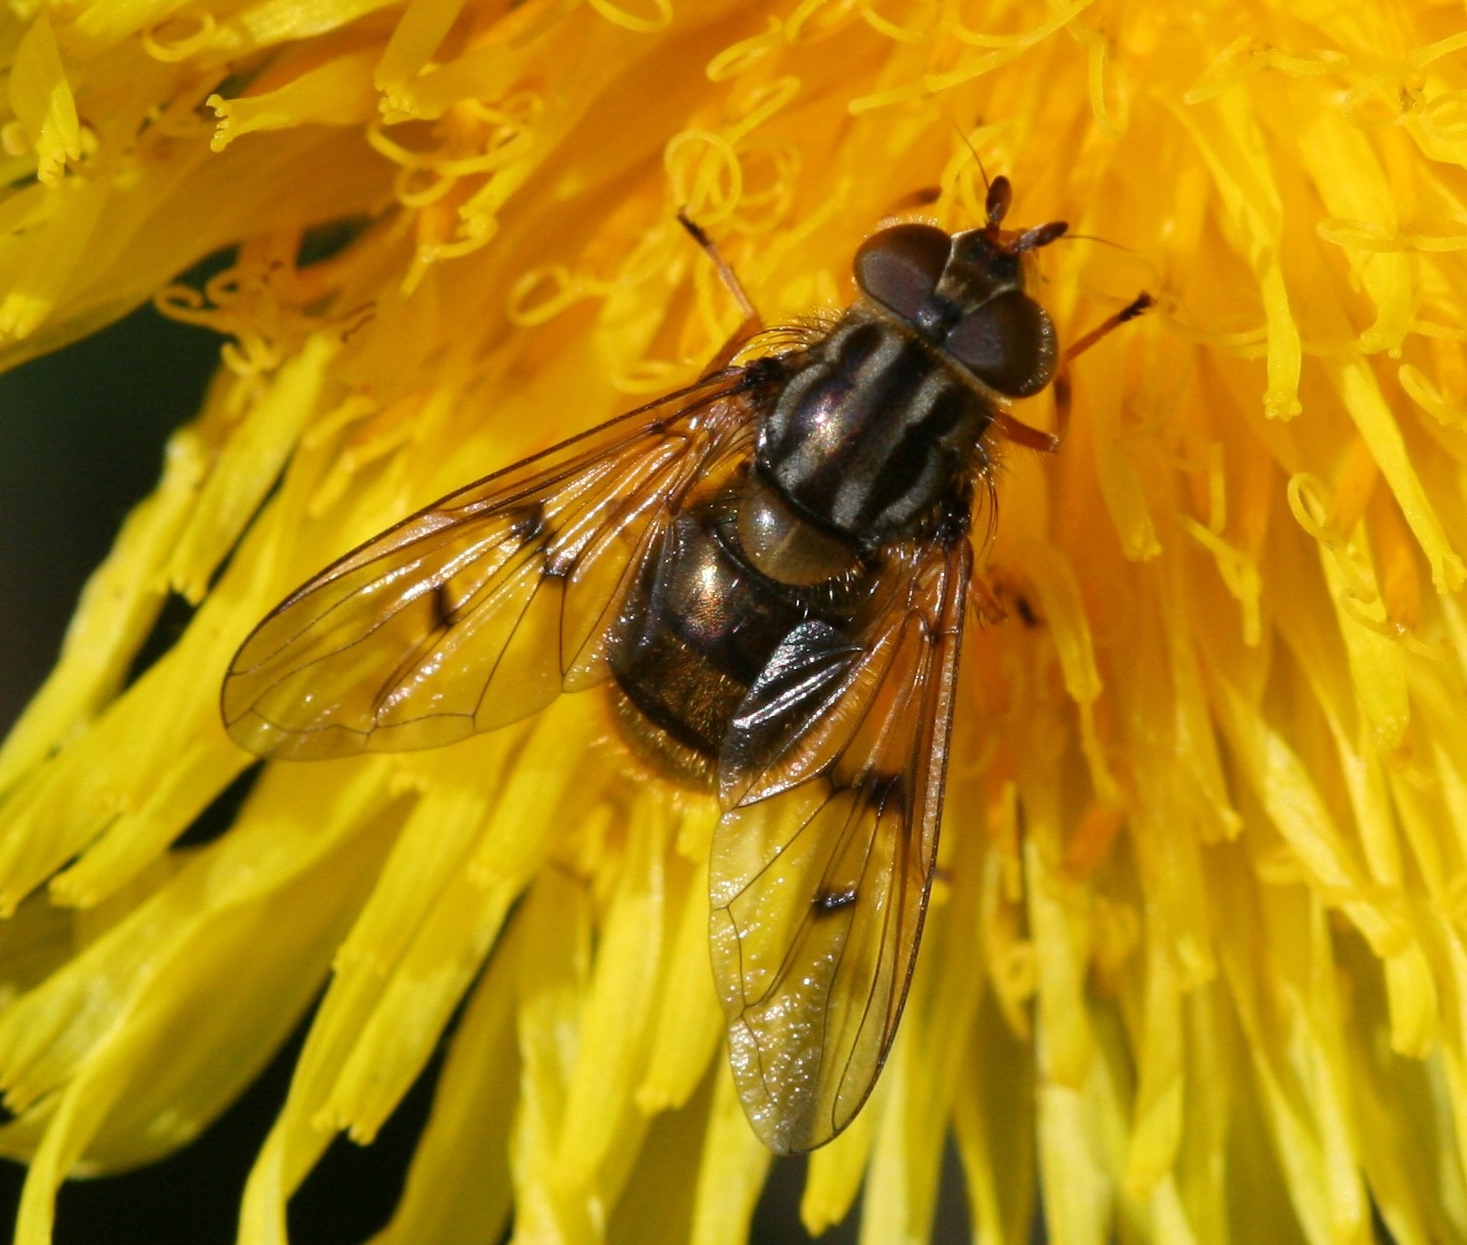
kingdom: Animalia
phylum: Arthropoda
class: Insecta
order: Diptera
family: Syrphidae
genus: Ferdinandea
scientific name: Ferdinandea cuprea
